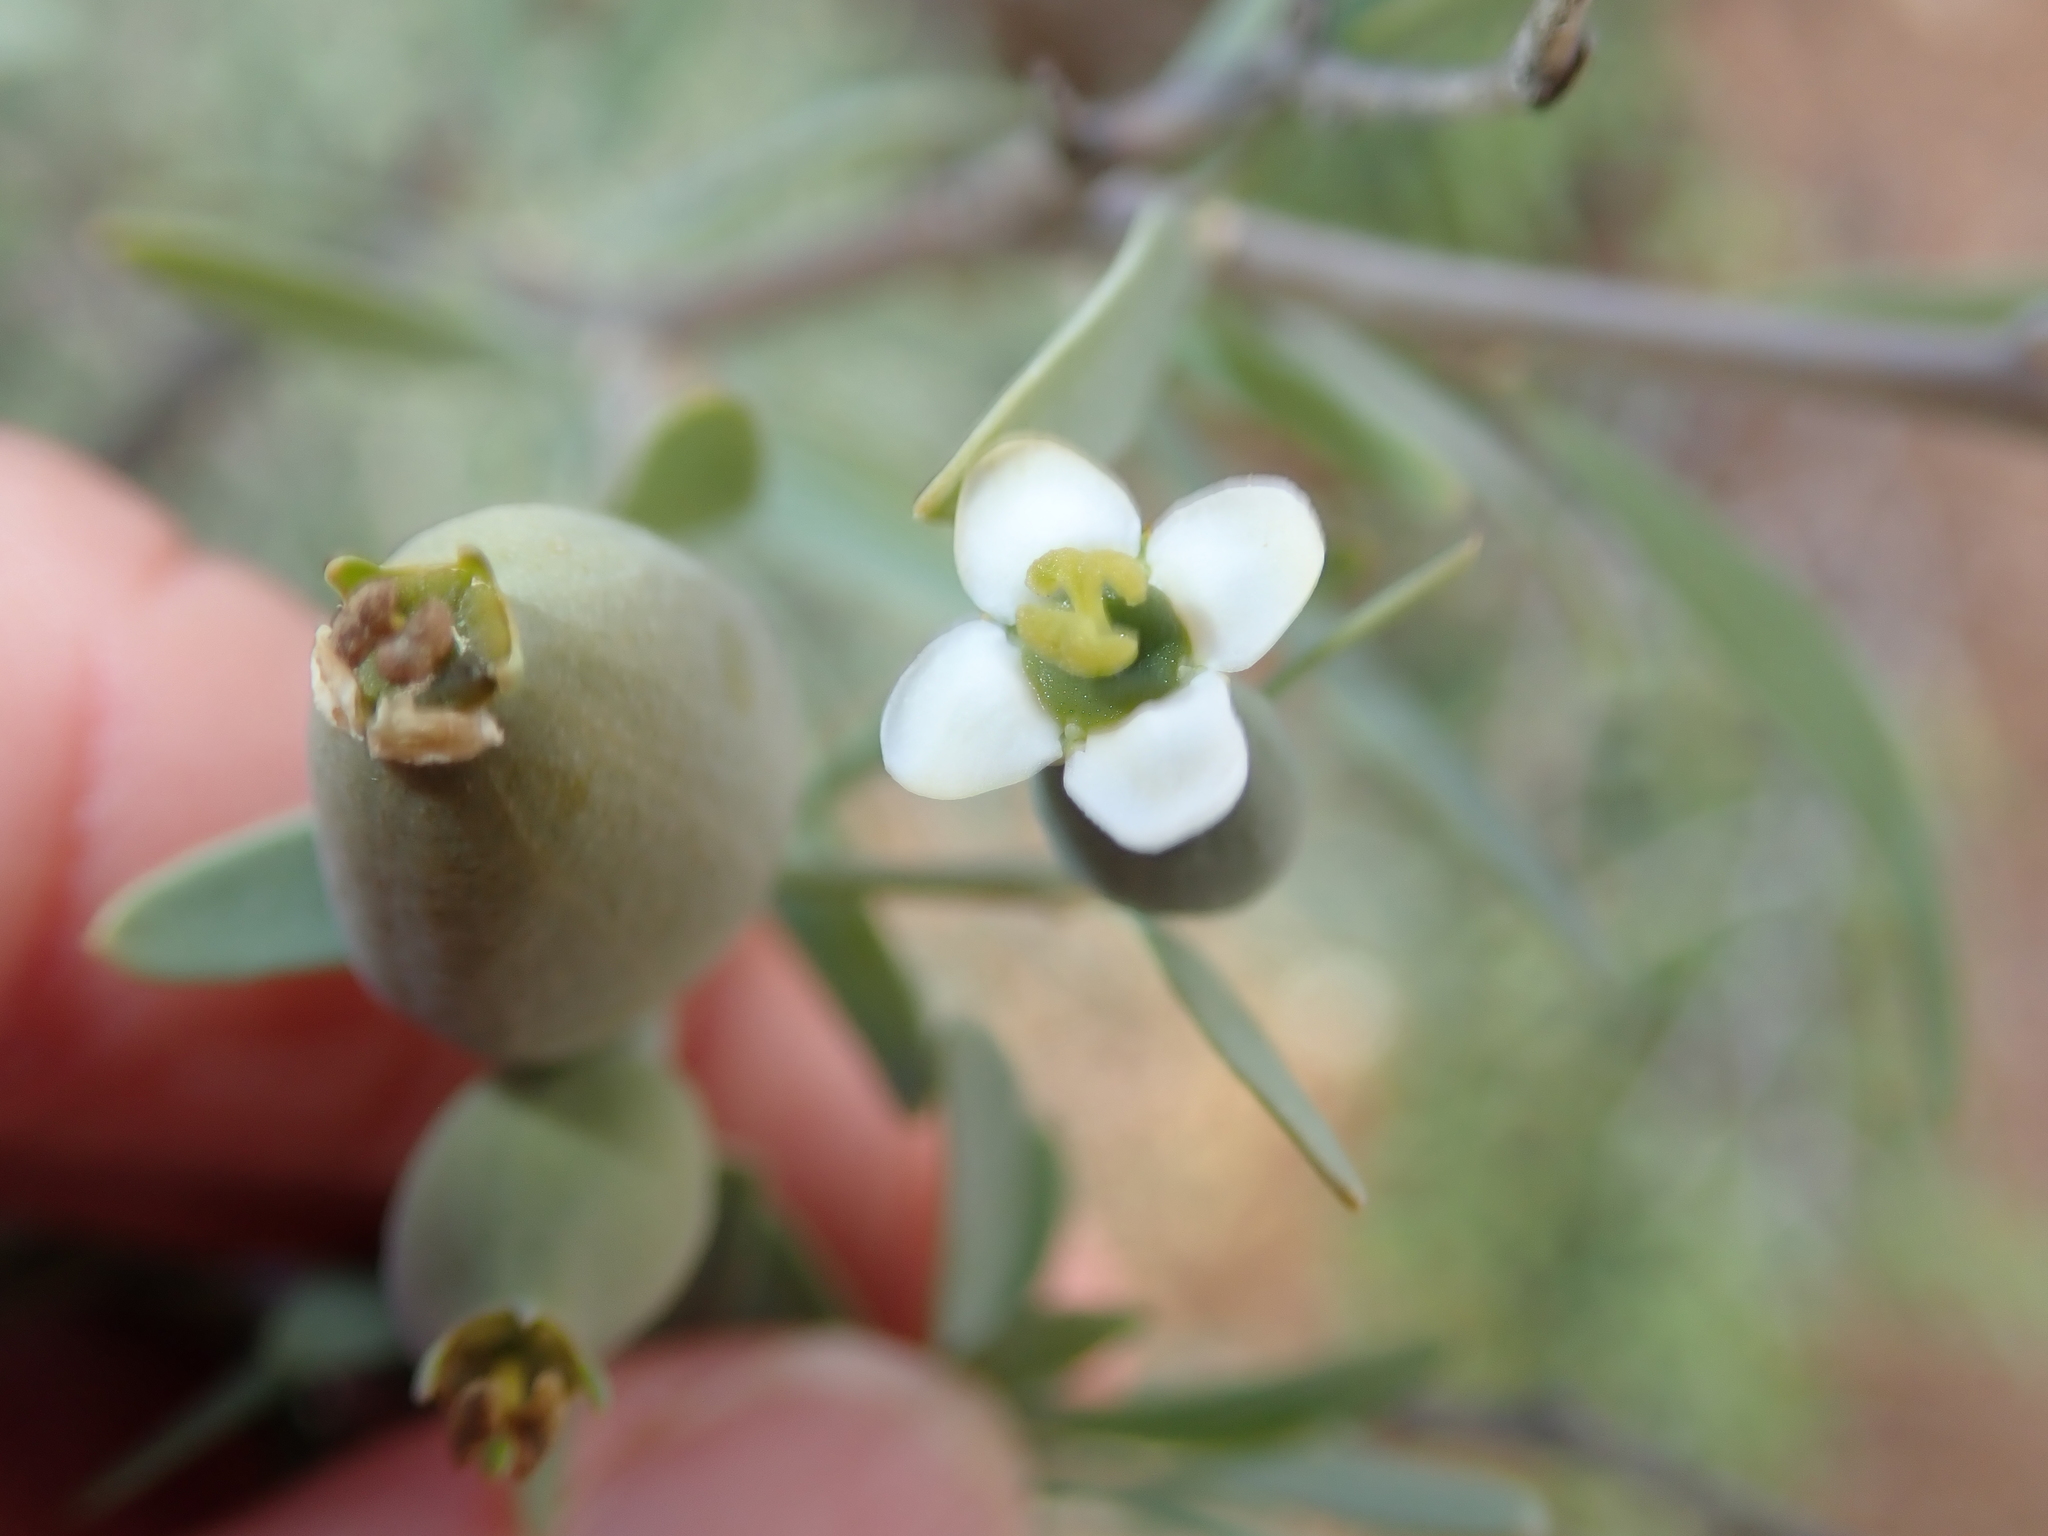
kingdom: Plantae
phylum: Tracheophyta
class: Magnoliopsida
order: Solanales
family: Montiniaceae
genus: Montinia
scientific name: Montinia caryophyllacea
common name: Wild clove-bush
